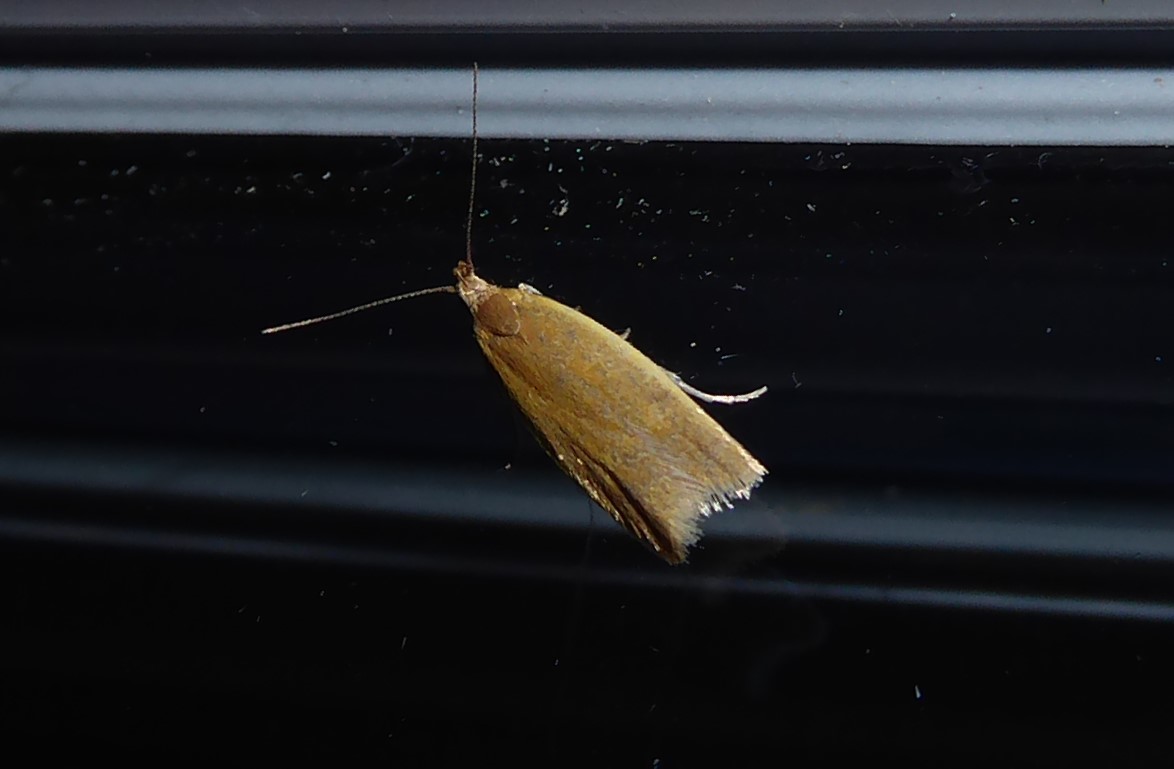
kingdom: Animalia
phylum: Arthropoda
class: Insecta
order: Lepidoptera
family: Oecophoridae
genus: Gymnobathra
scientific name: Gymnobathra parca
